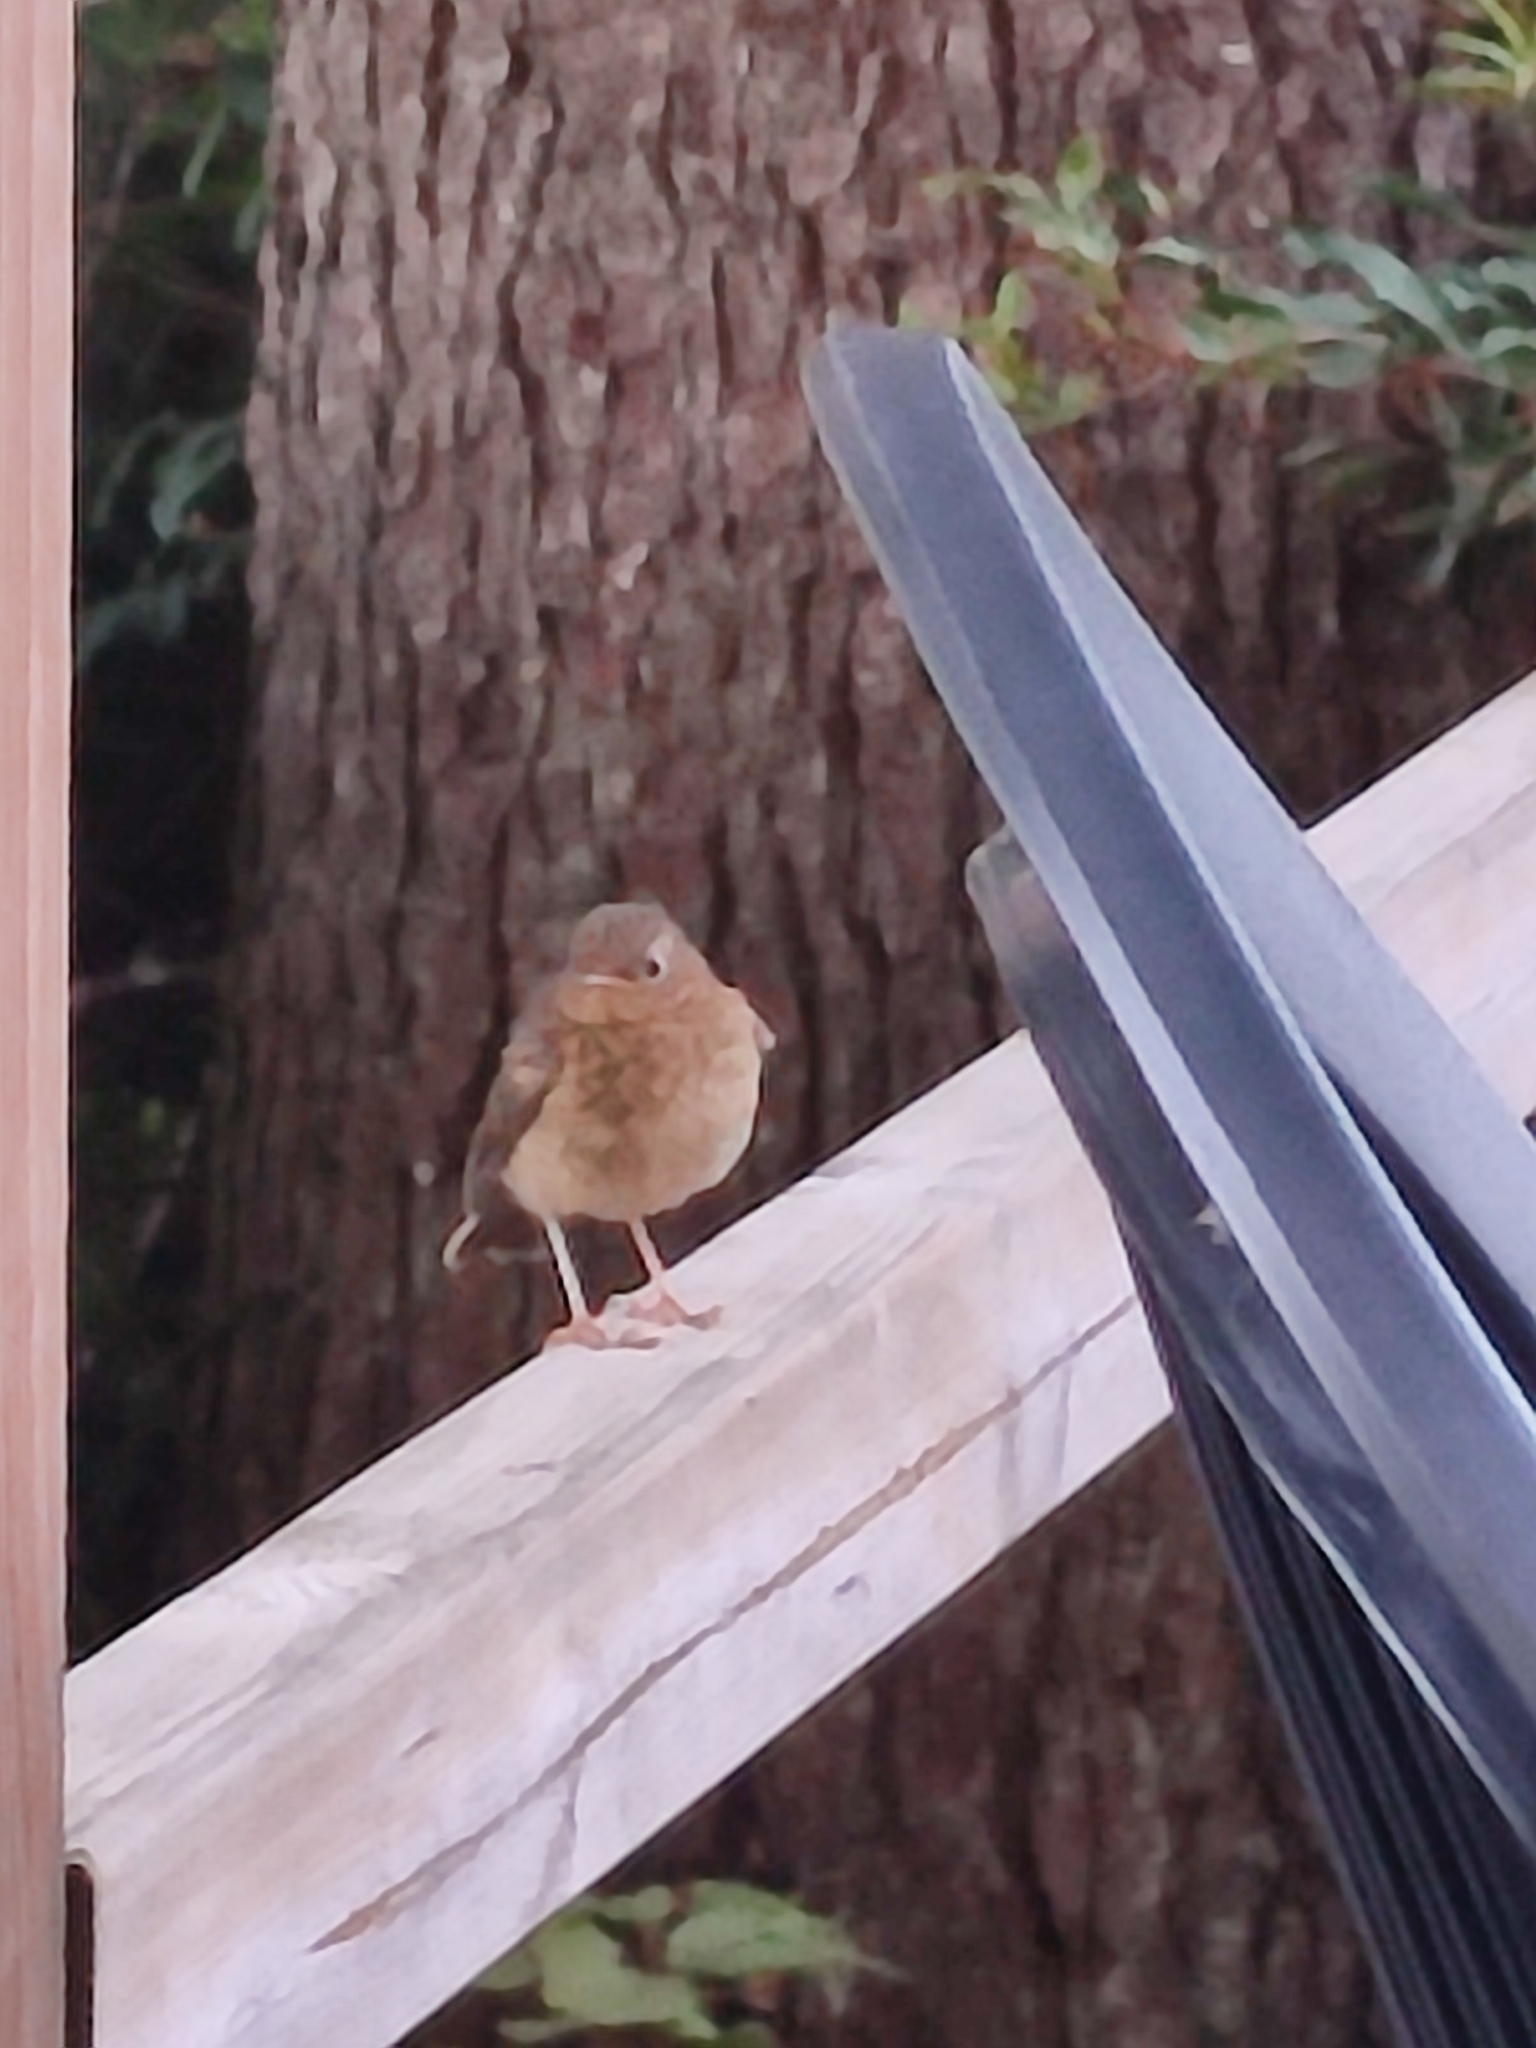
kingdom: Animalia
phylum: Chordata
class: Aves
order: Passeriformes
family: Muscicapidae
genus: Erithacus
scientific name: Erithacus rubecula
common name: European robin
